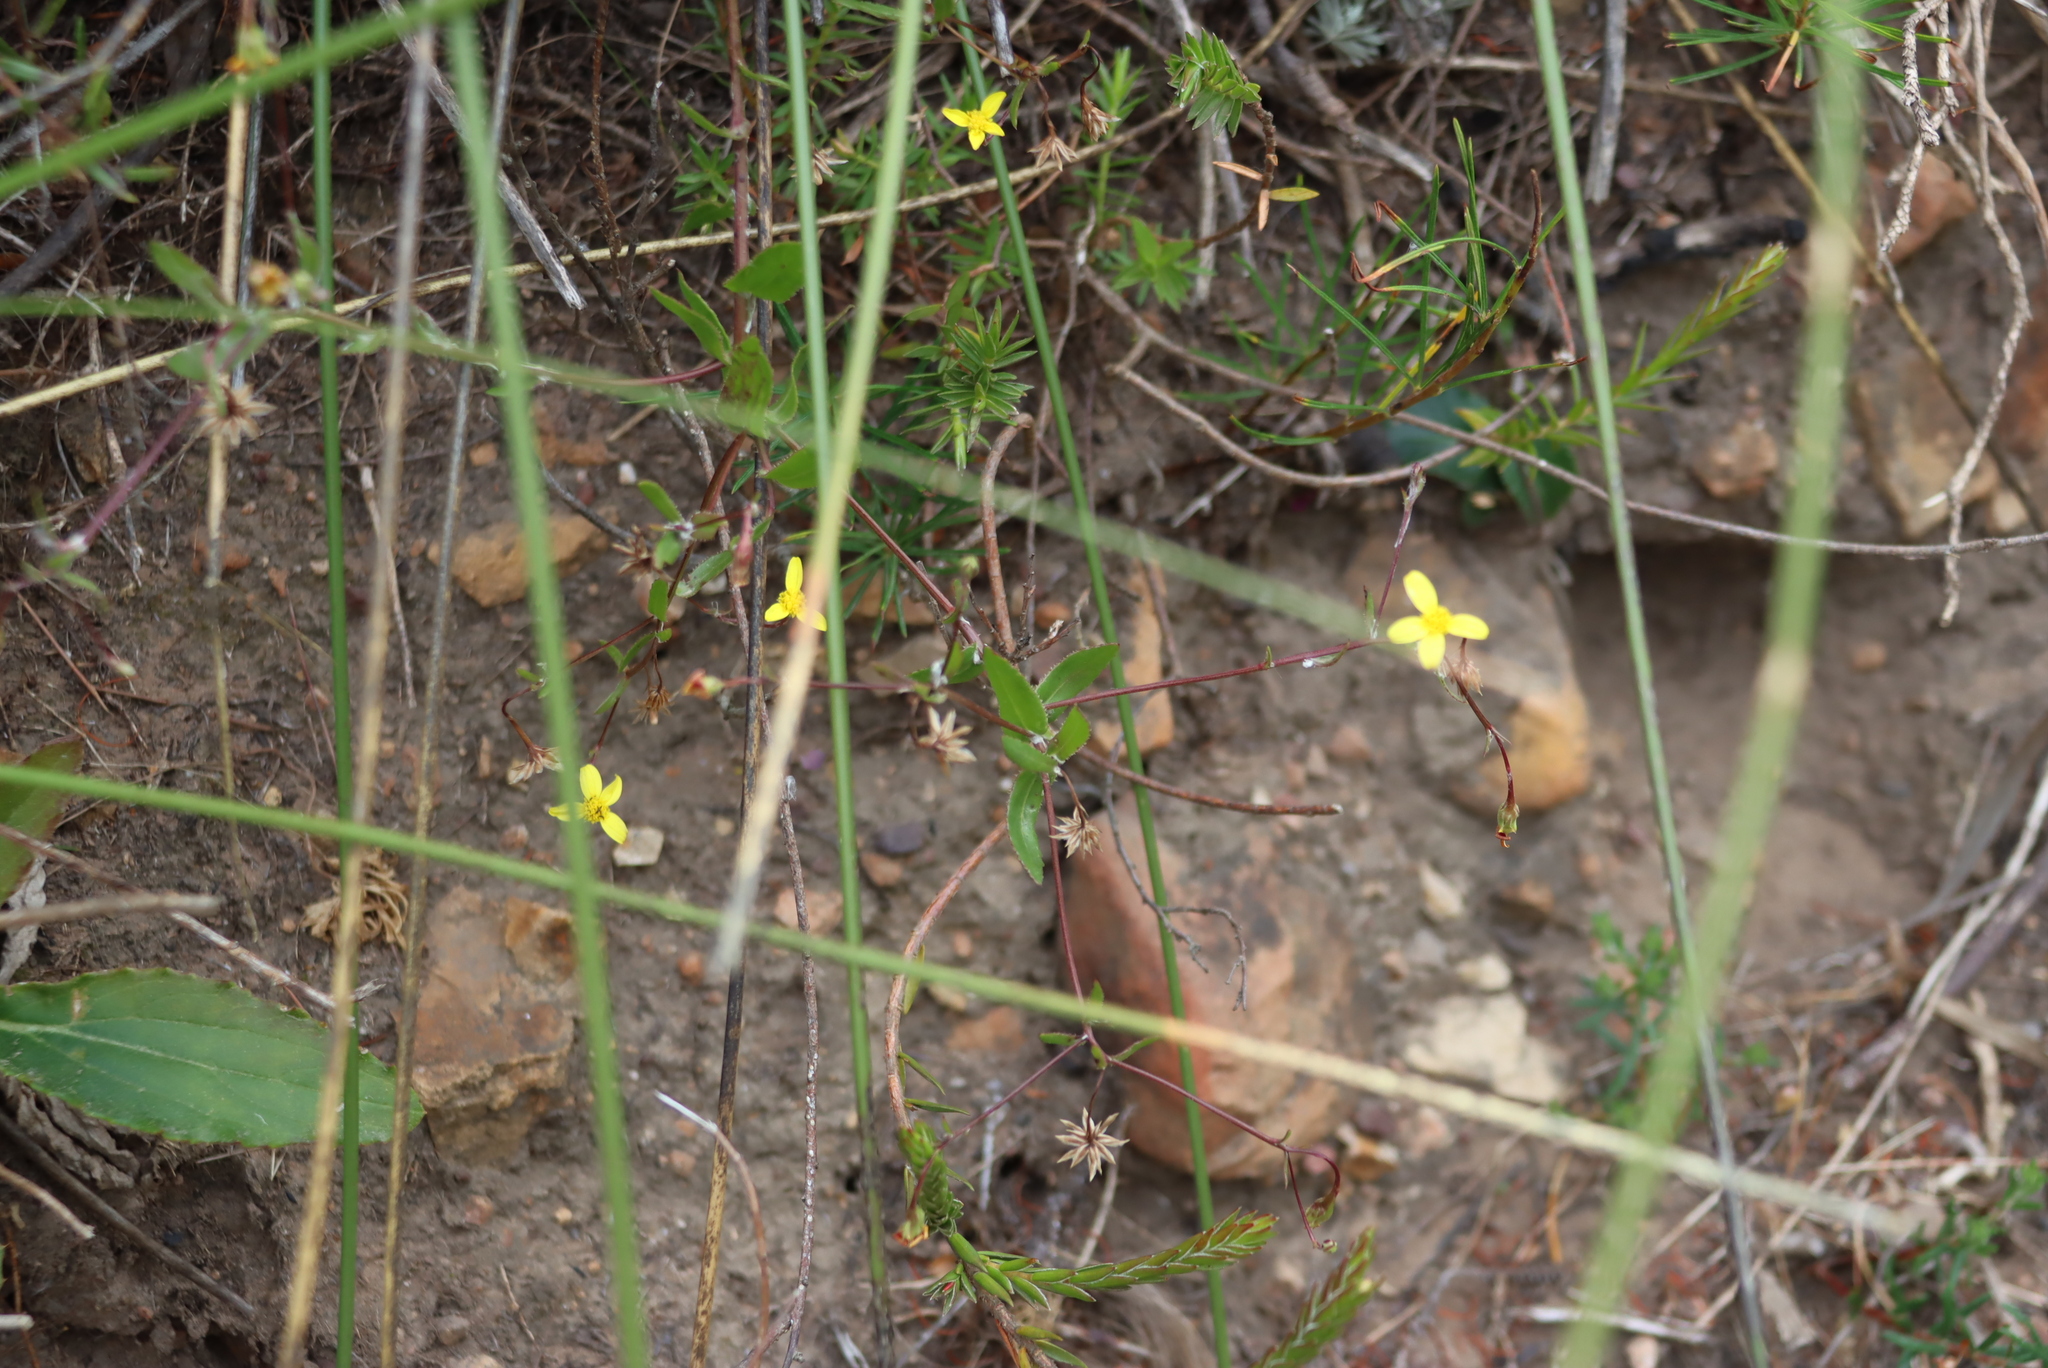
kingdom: Plantae
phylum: Tracheophyta
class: Magnoliopsida
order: Asterales
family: Asteraceae
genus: Osteospermum
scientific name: Osteospermum ciliatum
